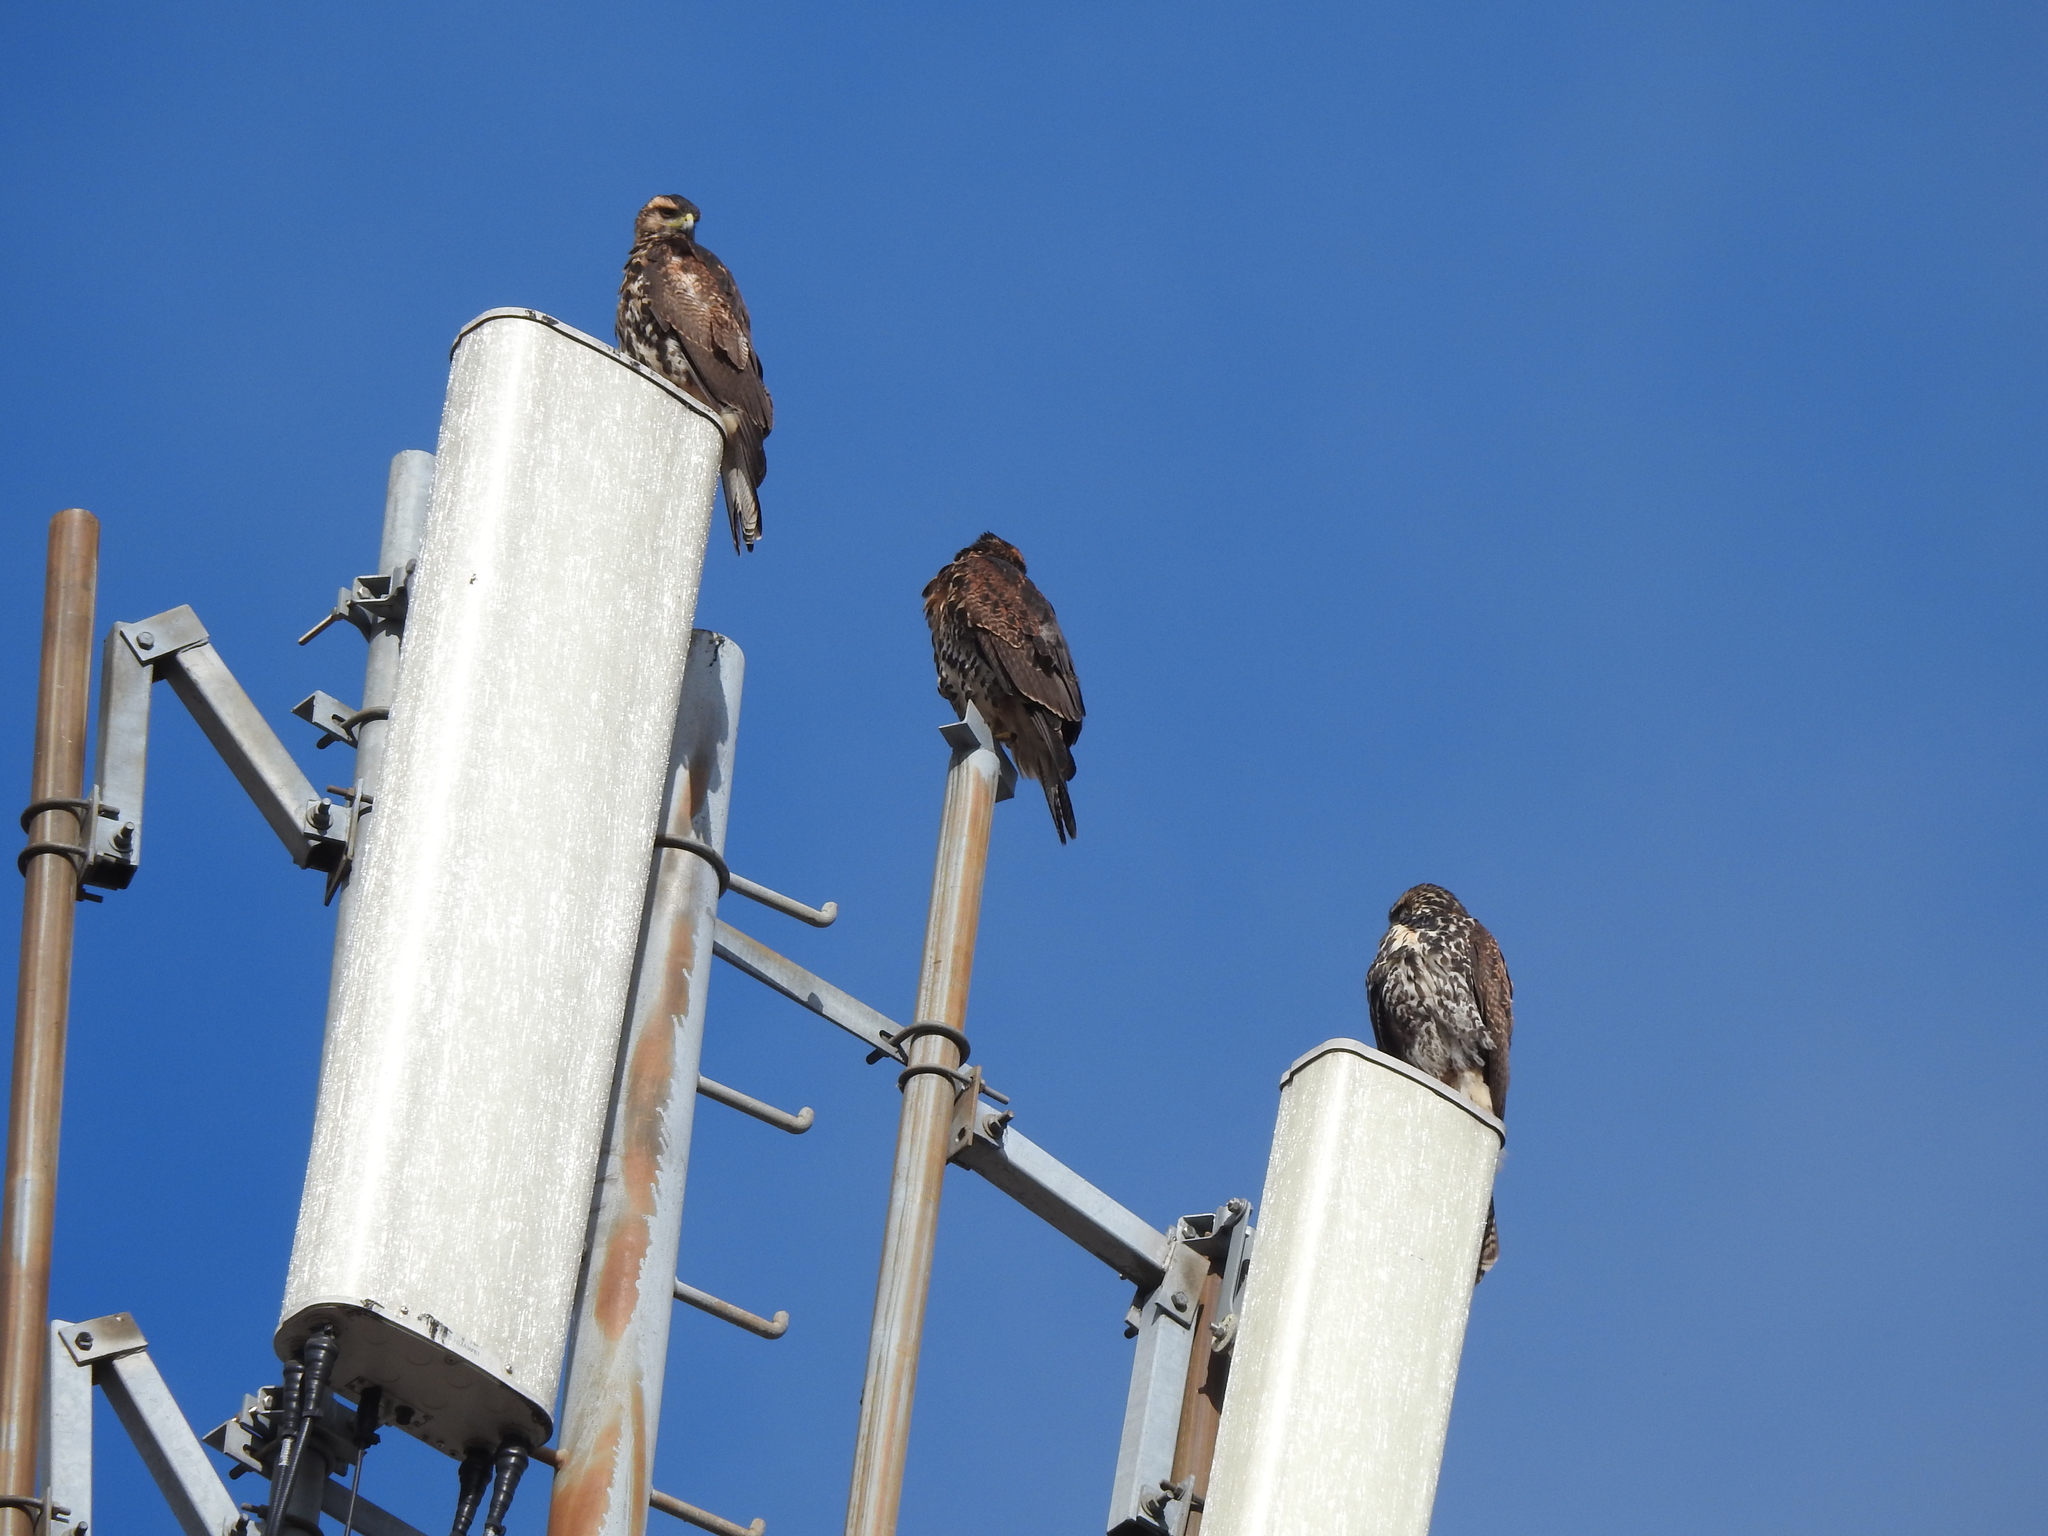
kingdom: Animalia
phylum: Chordata
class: Aves
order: Accipitriformes
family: Accipitridae
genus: Parabuteo
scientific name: Parabuteo unicinctus
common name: Harris's hawk
